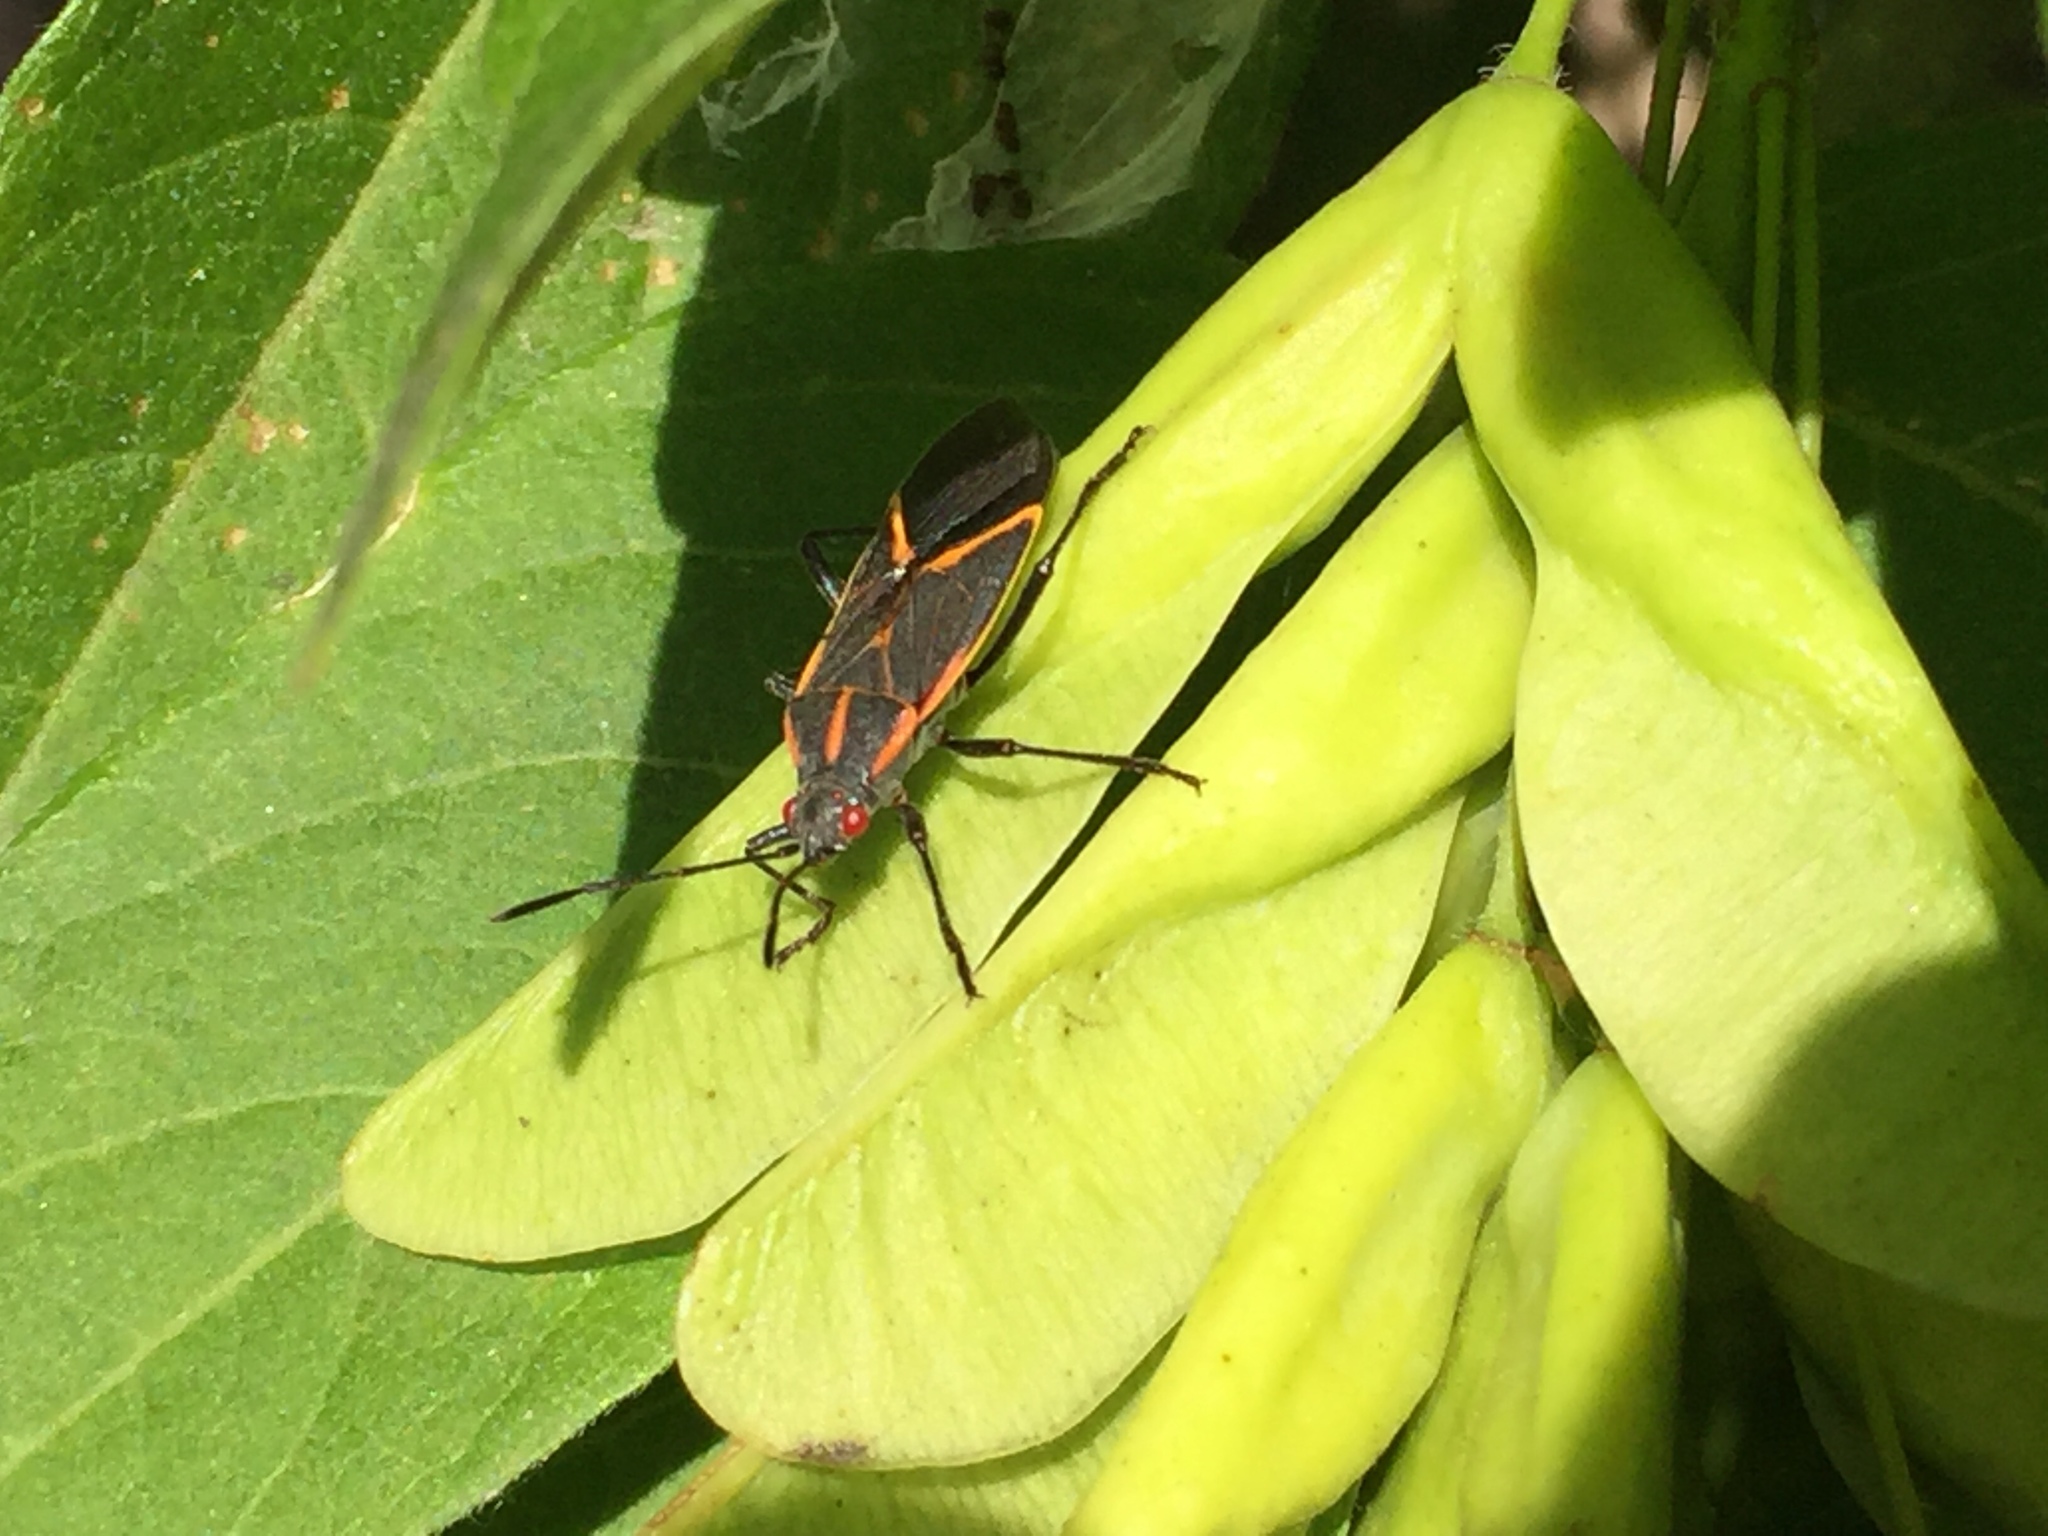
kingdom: Animalia
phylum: Arthropoda
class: Insecta
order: Hemiptera
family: Rhopalidae
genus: Boisea
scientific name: Boisea trivittata
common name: Boxelder bug
